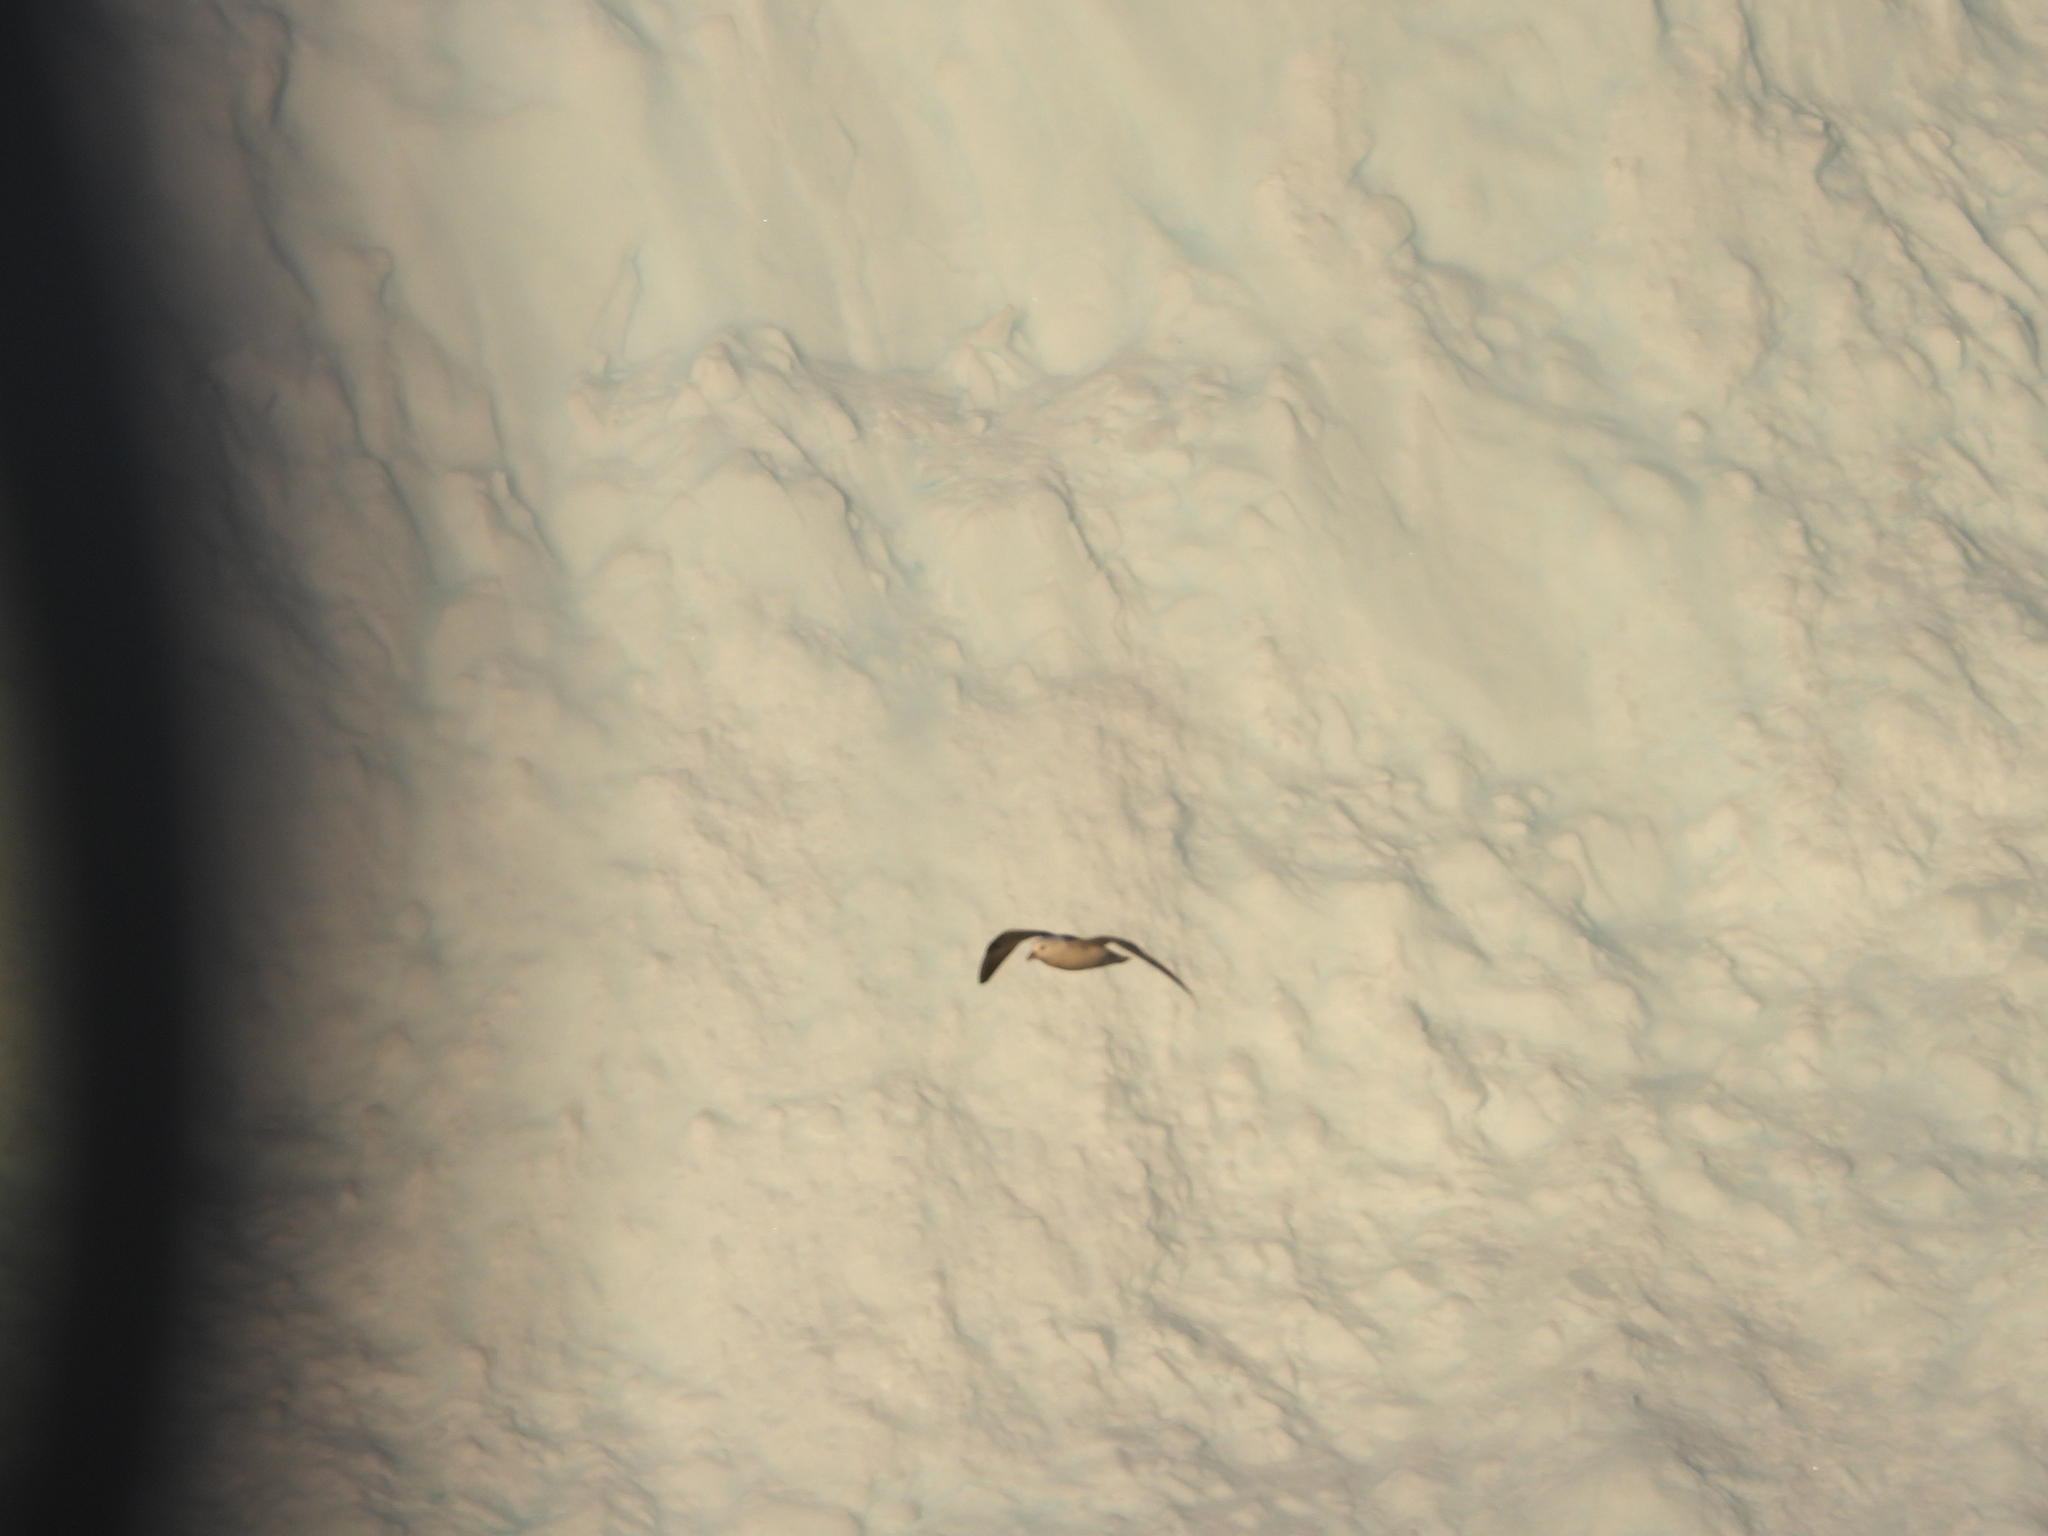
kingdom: Animalia
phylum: Chordata
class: Aves
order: Procellariiformes
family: Procellariidae
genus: Fulmarus
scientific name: Fulmarus glacialis
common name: Northern fulmar
